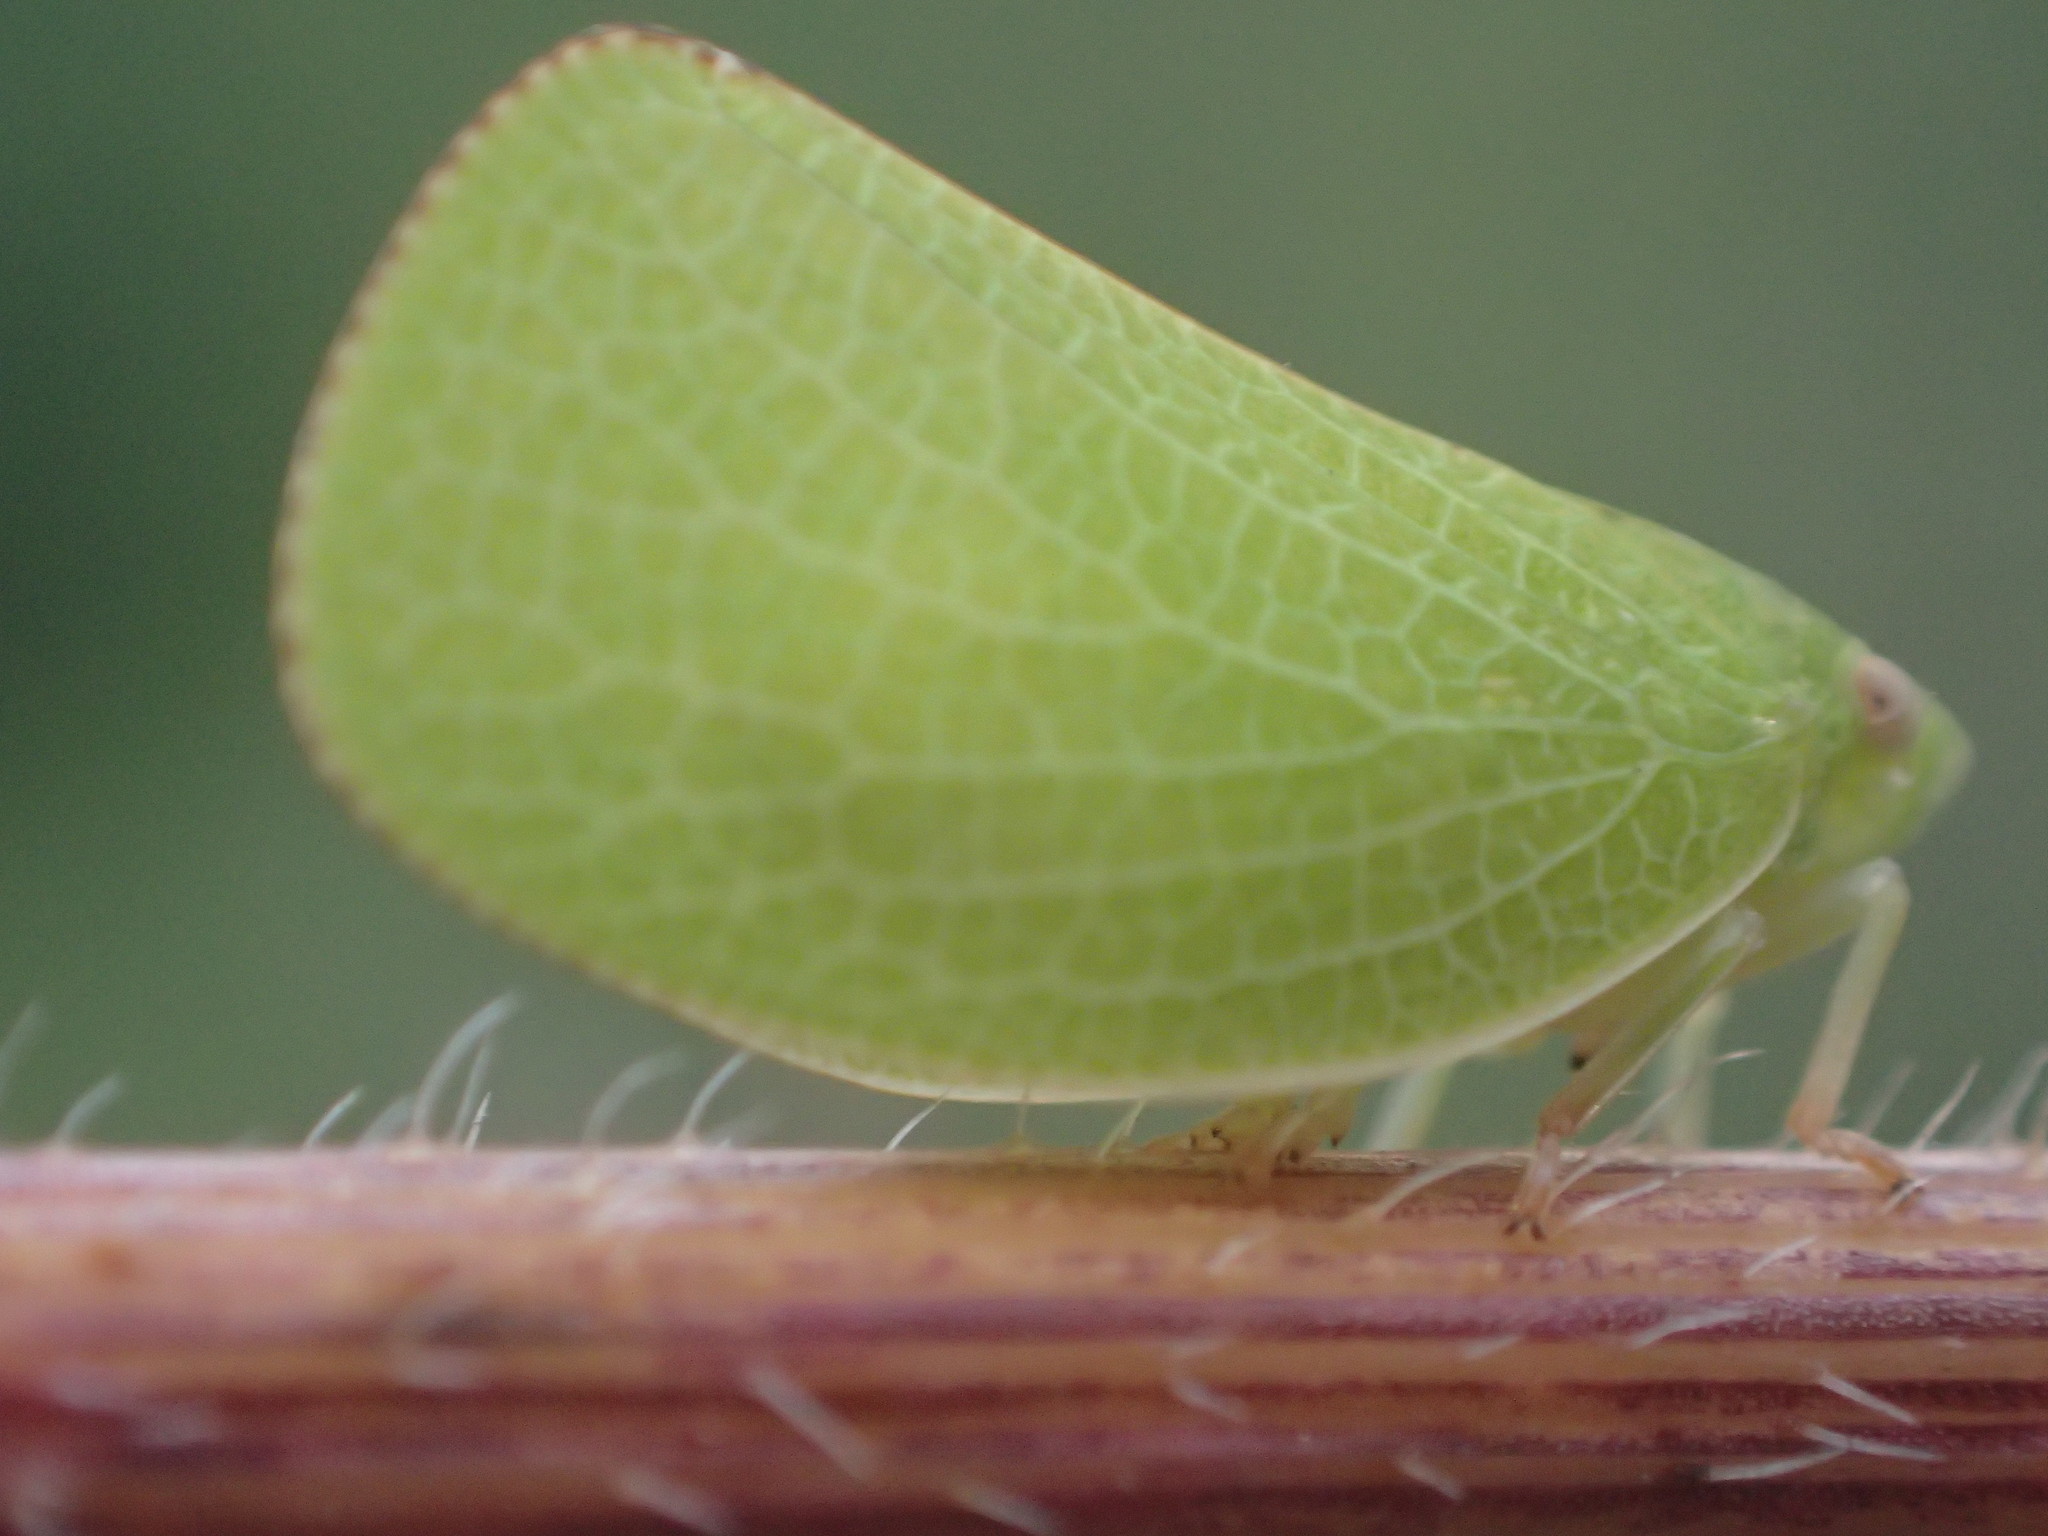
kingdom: Animalia
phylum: Arthropoda
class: Insecta
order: Hemiptera
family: Acanaloniidae
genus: Acanalonia
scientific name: Acanalonia conica
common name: Green cone-headed planthopper
